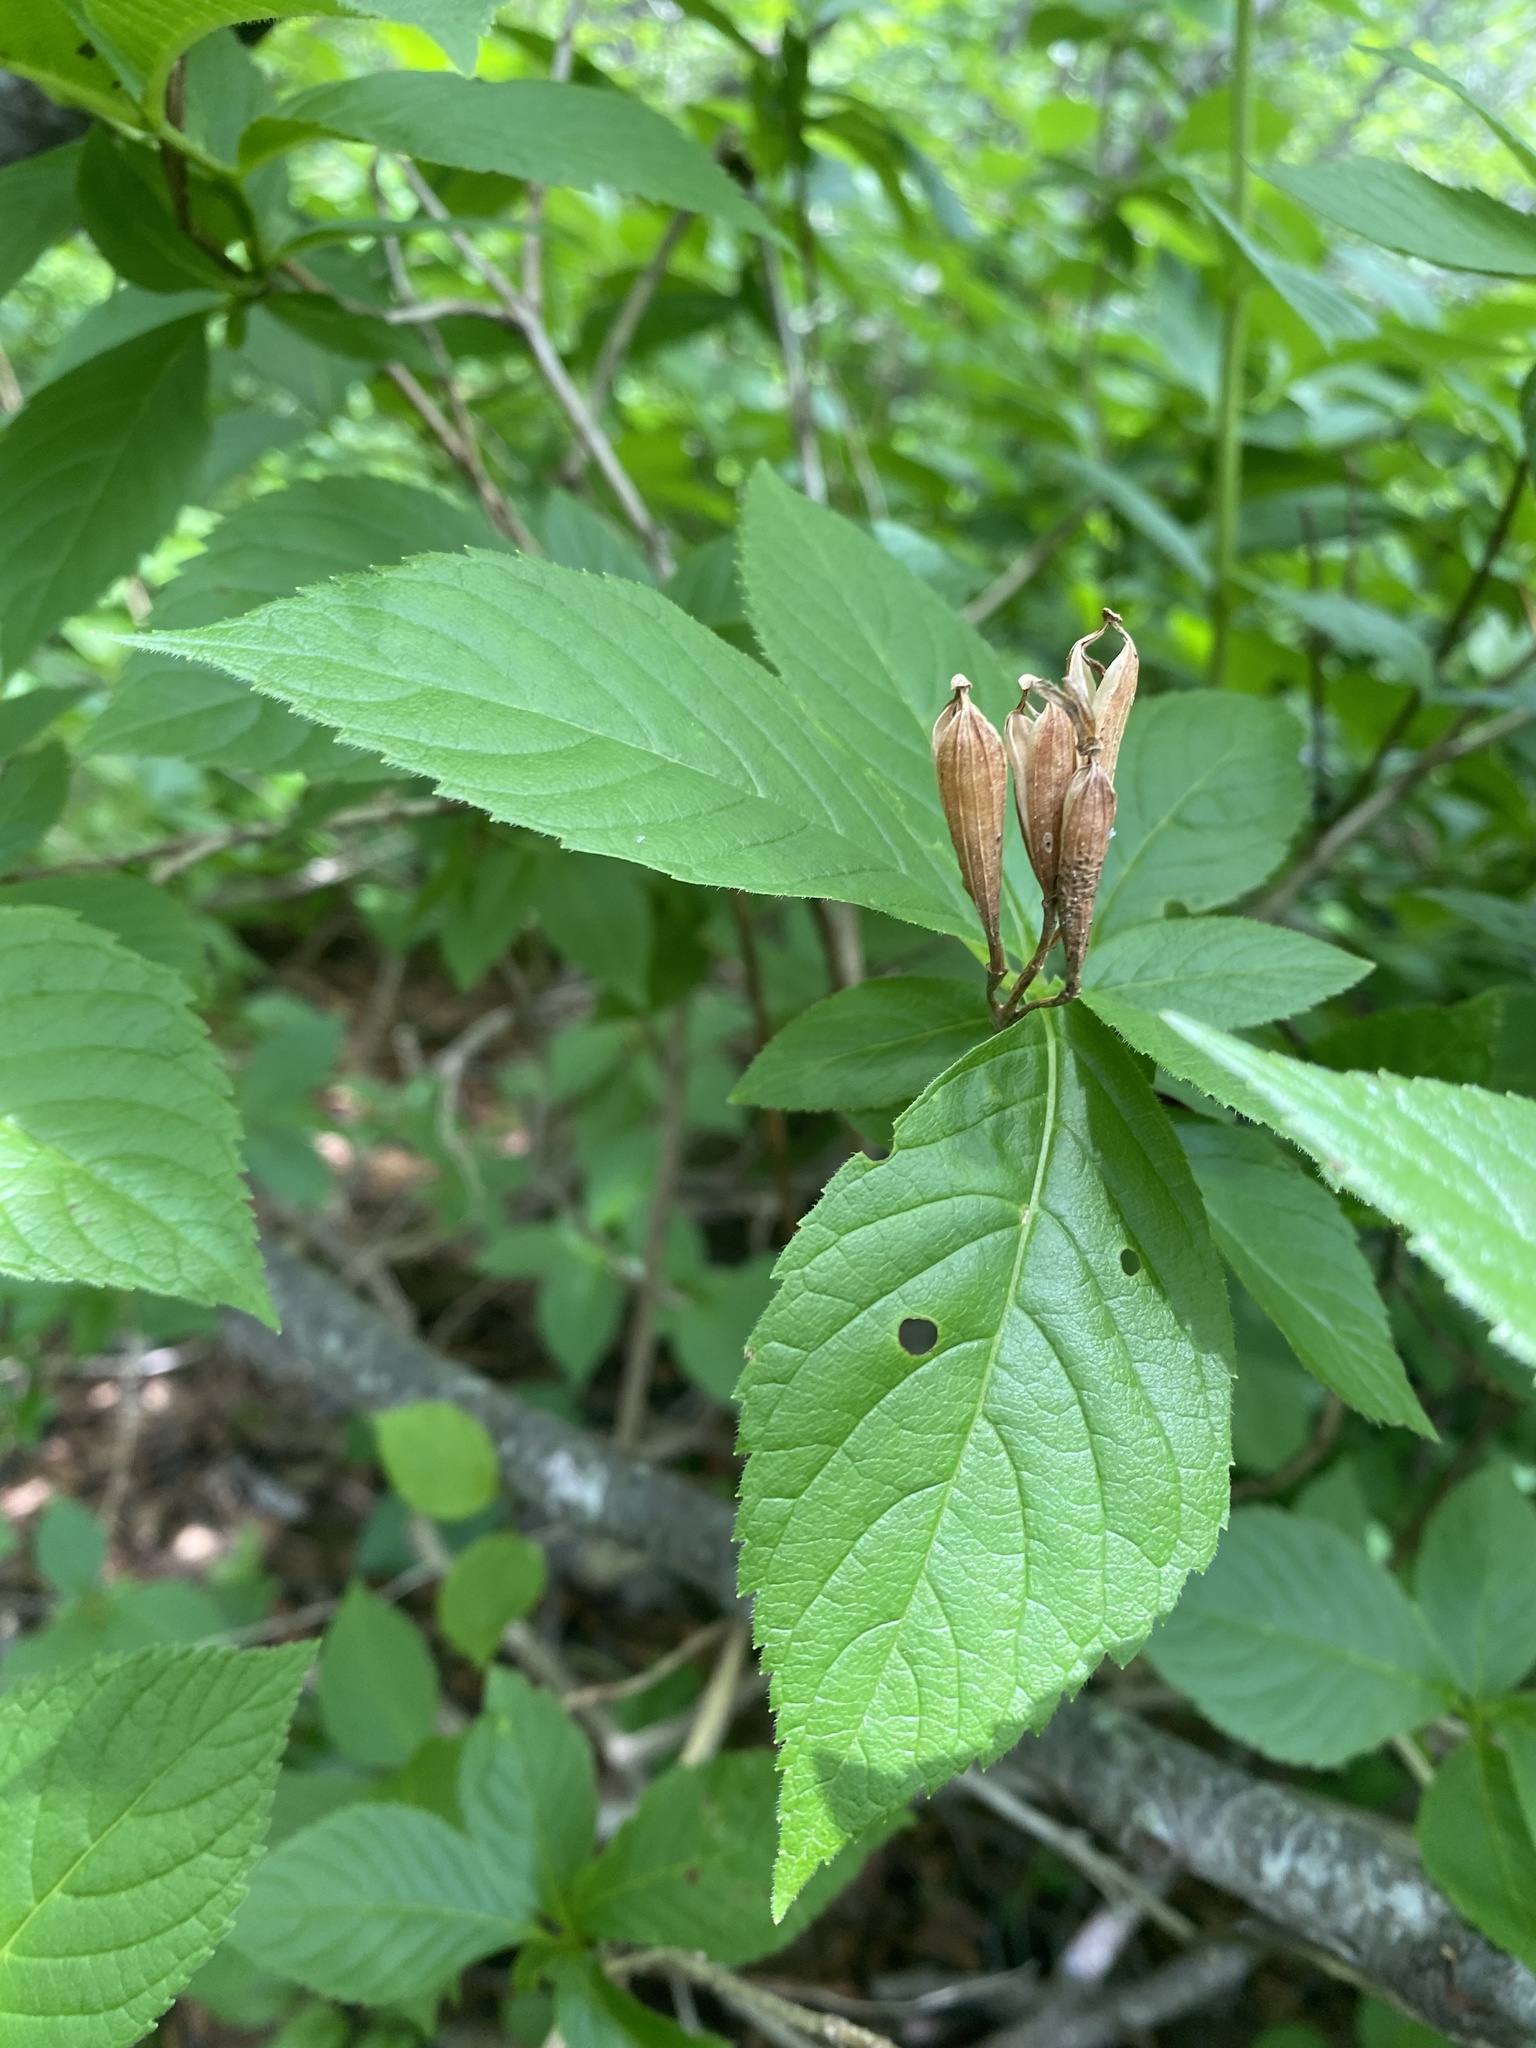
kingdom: Plantae
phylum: Tracheophyta
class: Magnoliopsida
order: Dipsacales
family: Caprifoliaceae
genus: Weigela
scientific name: Weigela middendorffiana
